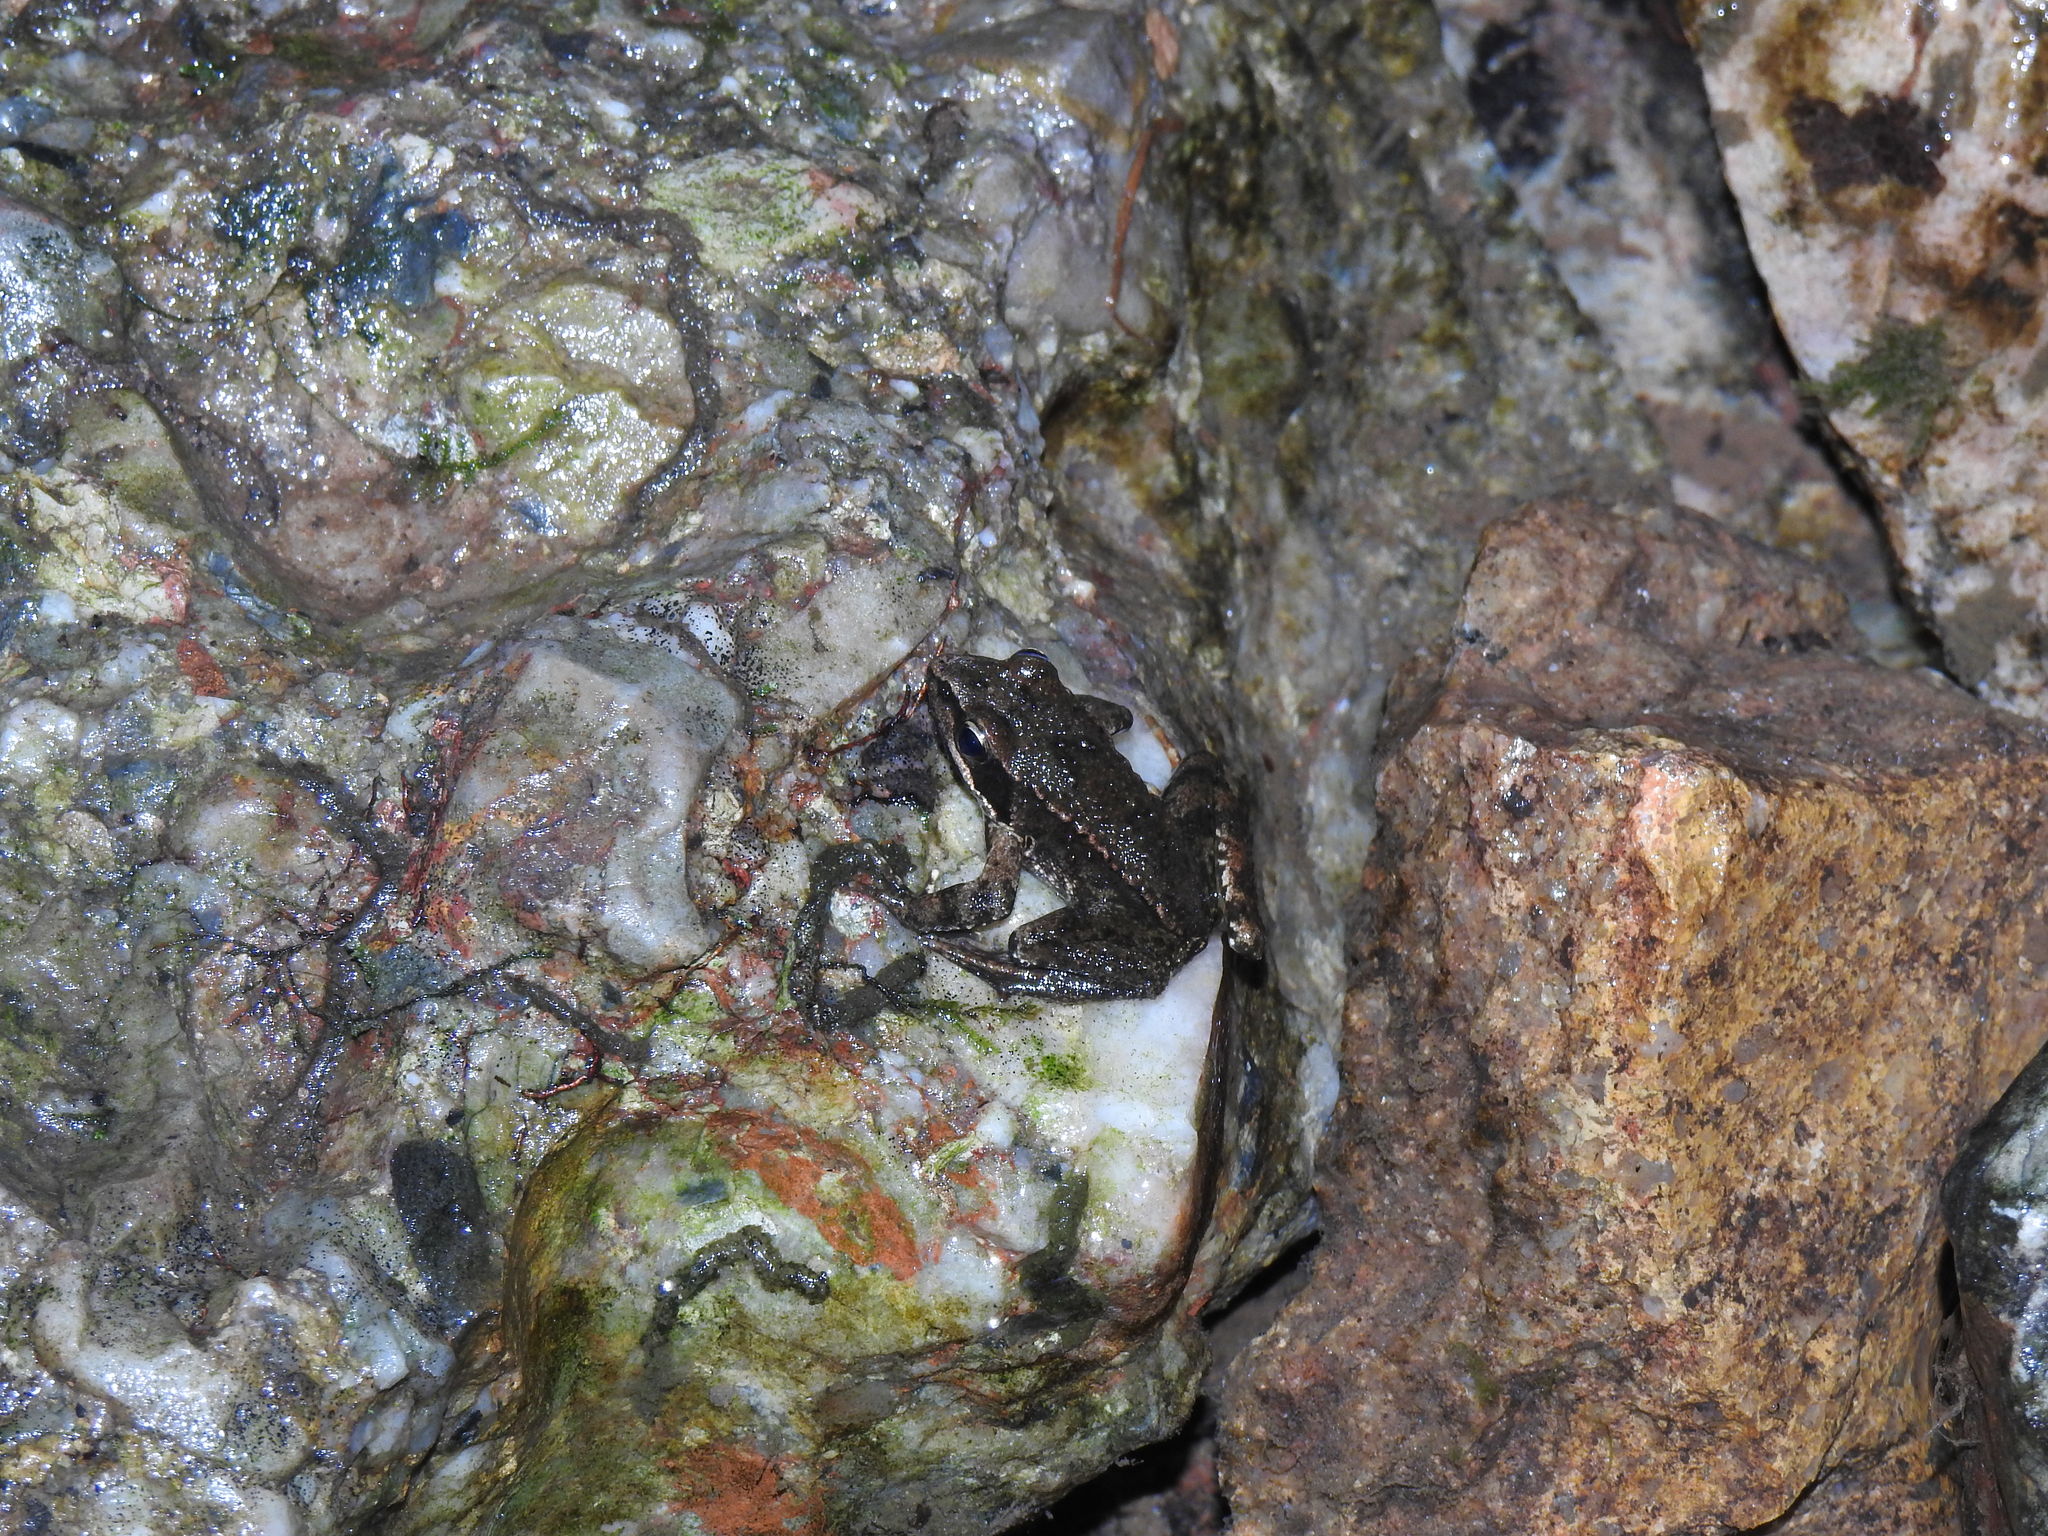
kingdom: Animalia
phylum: Chordata
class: Amphibia
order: Anura
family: Ranidae
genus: Rana
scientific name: Rana iberica
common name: Iberian frog
